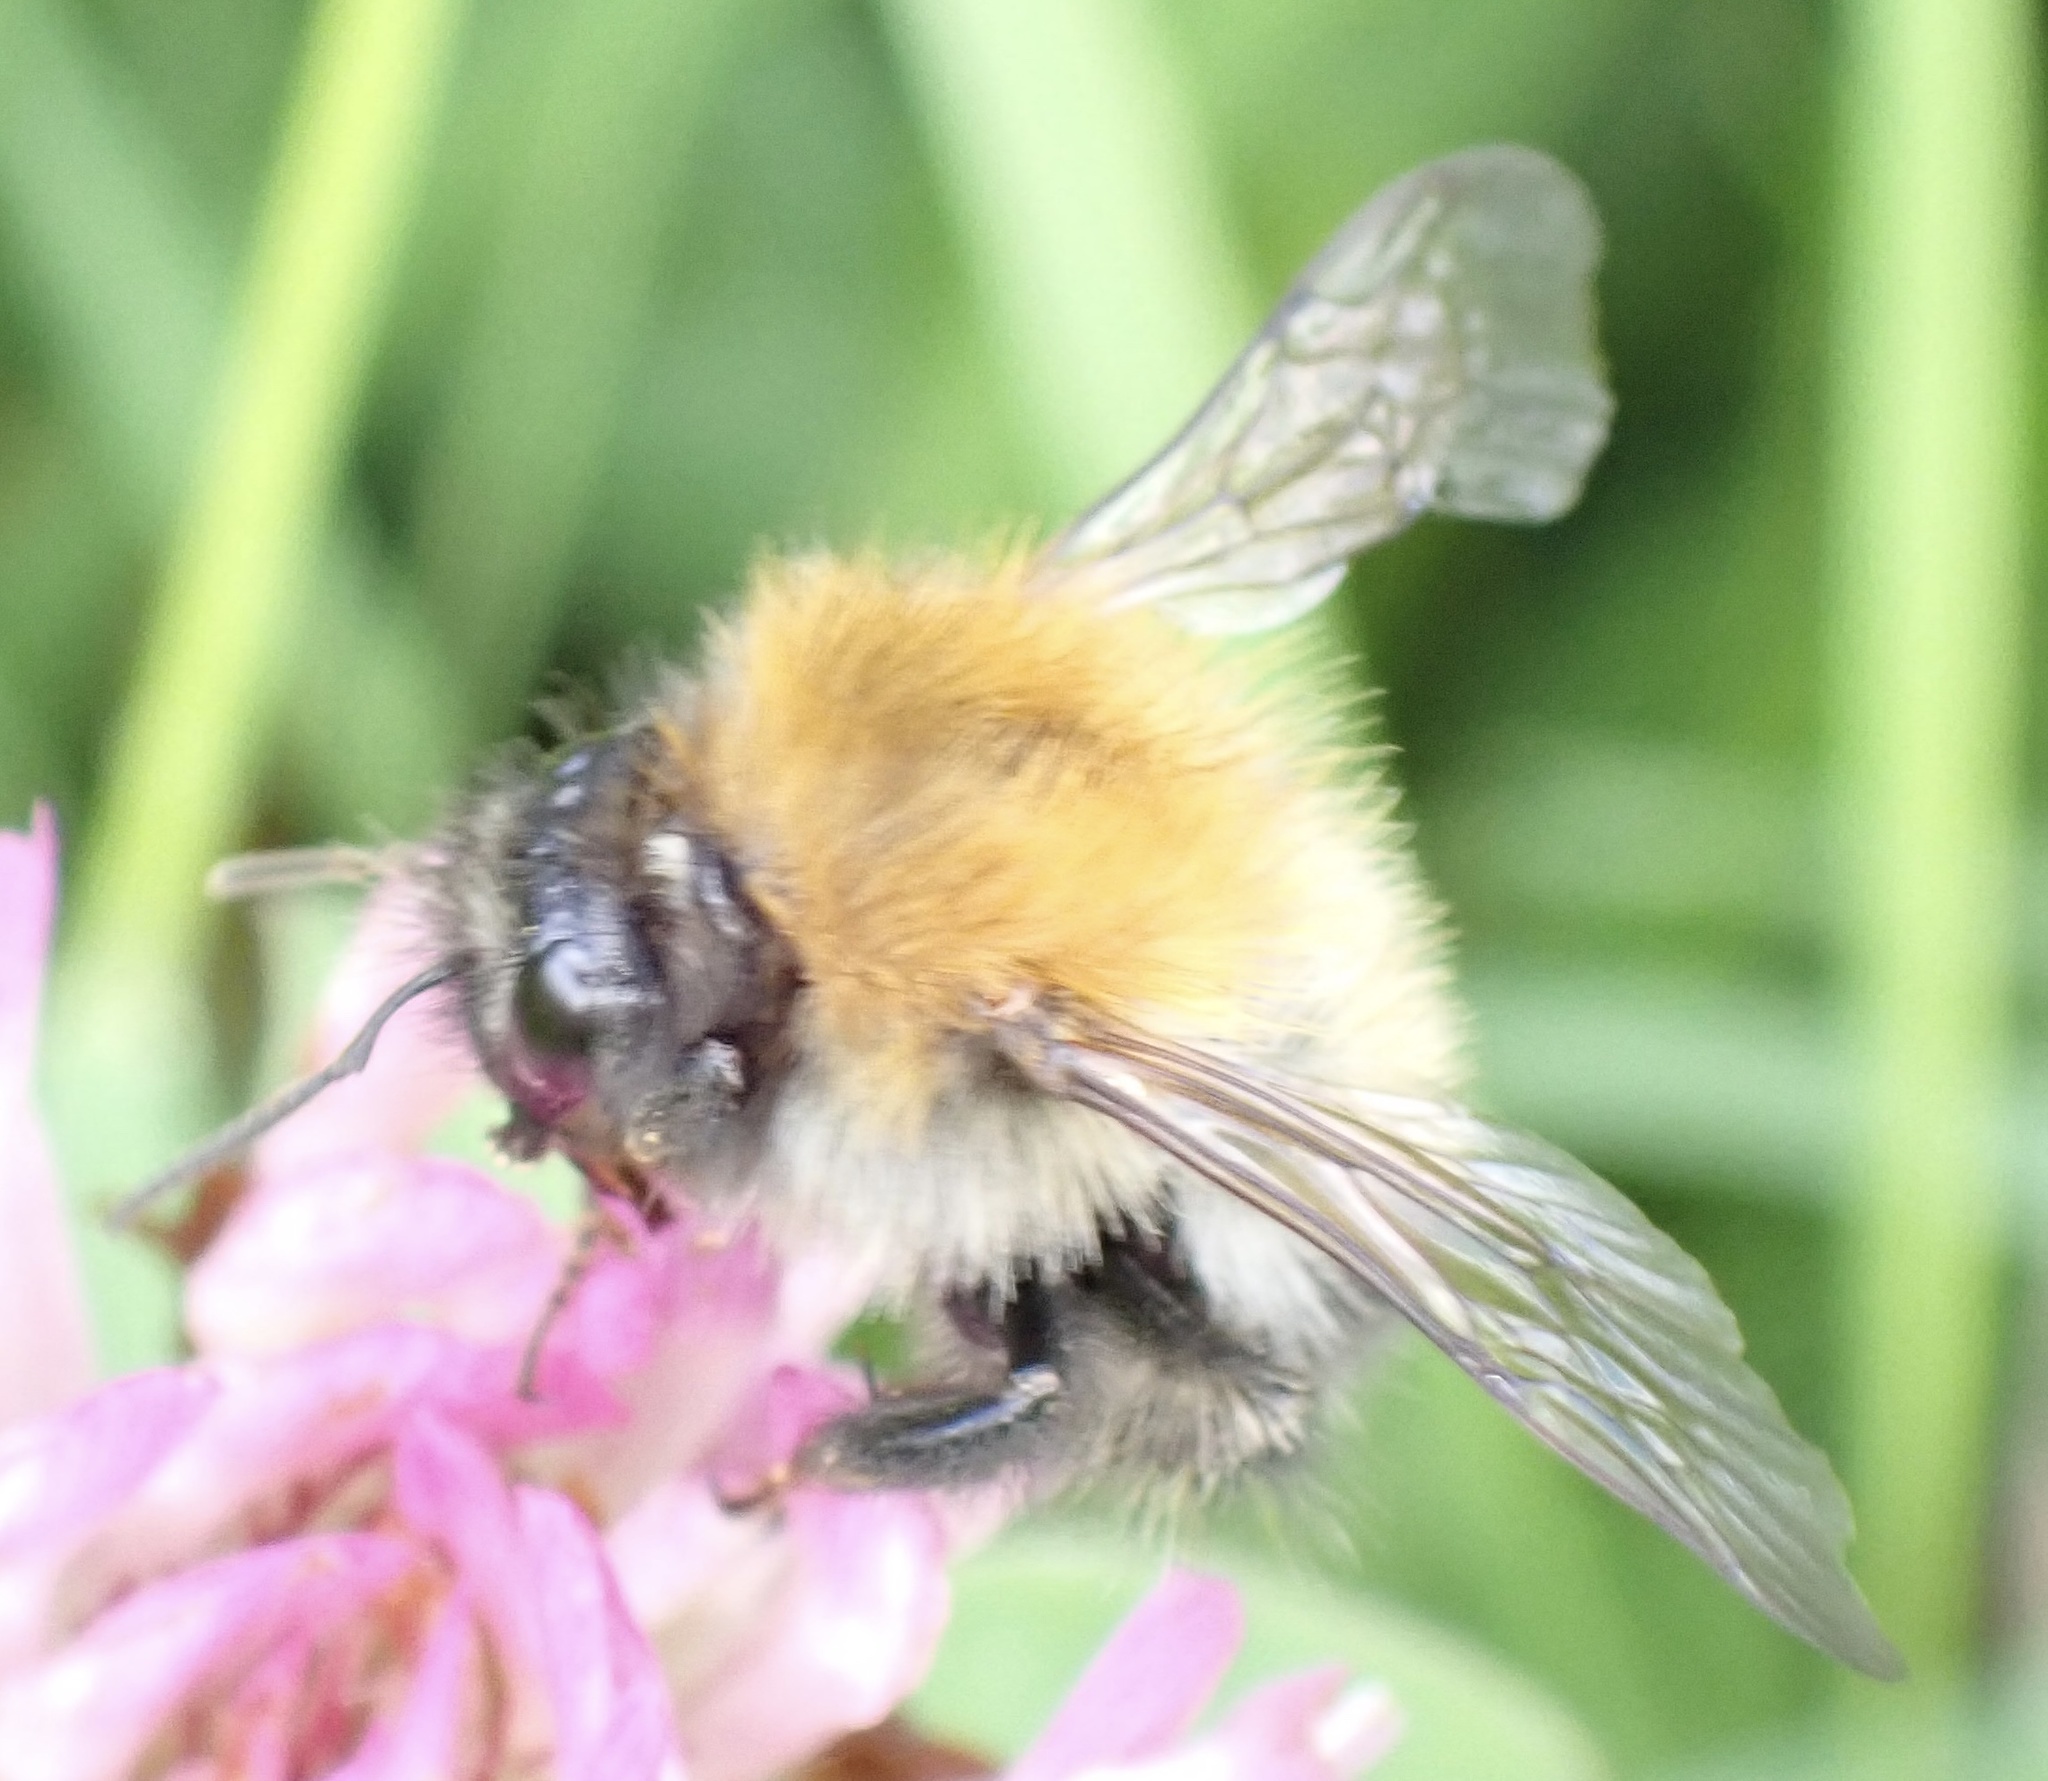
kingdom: Animalia
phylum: Arthropoda
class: Insecta
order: Hymenoptera
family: Apidae
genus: Bombus
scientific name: Bombus pascuorum
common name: Common carder bee
